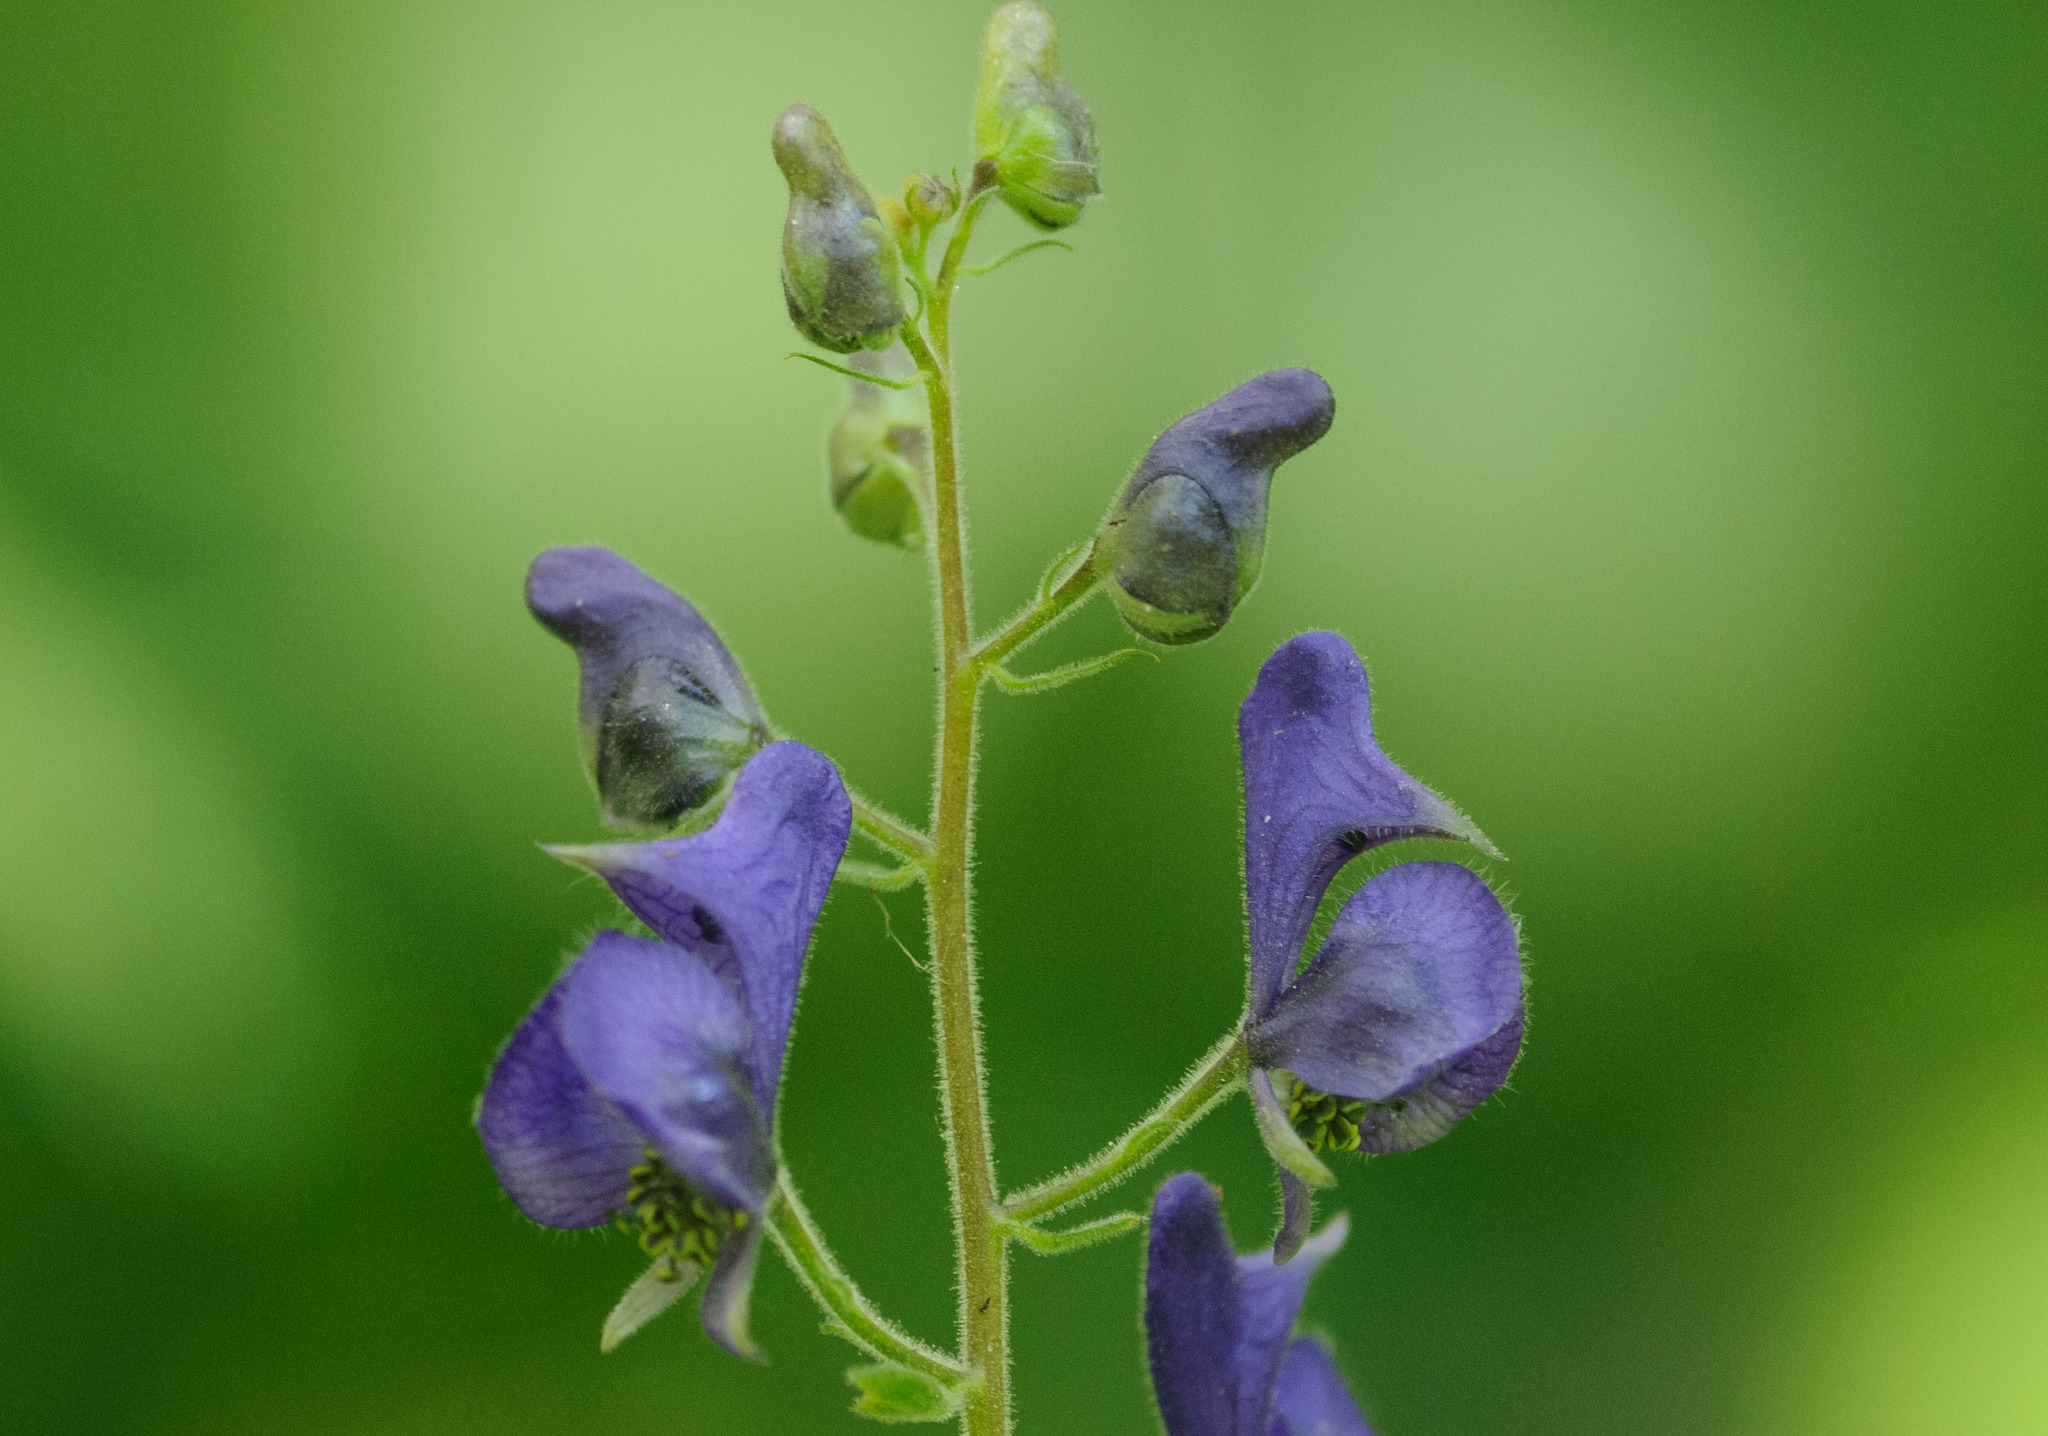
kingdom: Plantae
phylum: Tracheophyta
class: Magnoliopsida
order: Ranunculales
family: Ranunculaceae
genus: Aconitum
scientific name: Aconitum columbianum
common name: Columbia aconite
